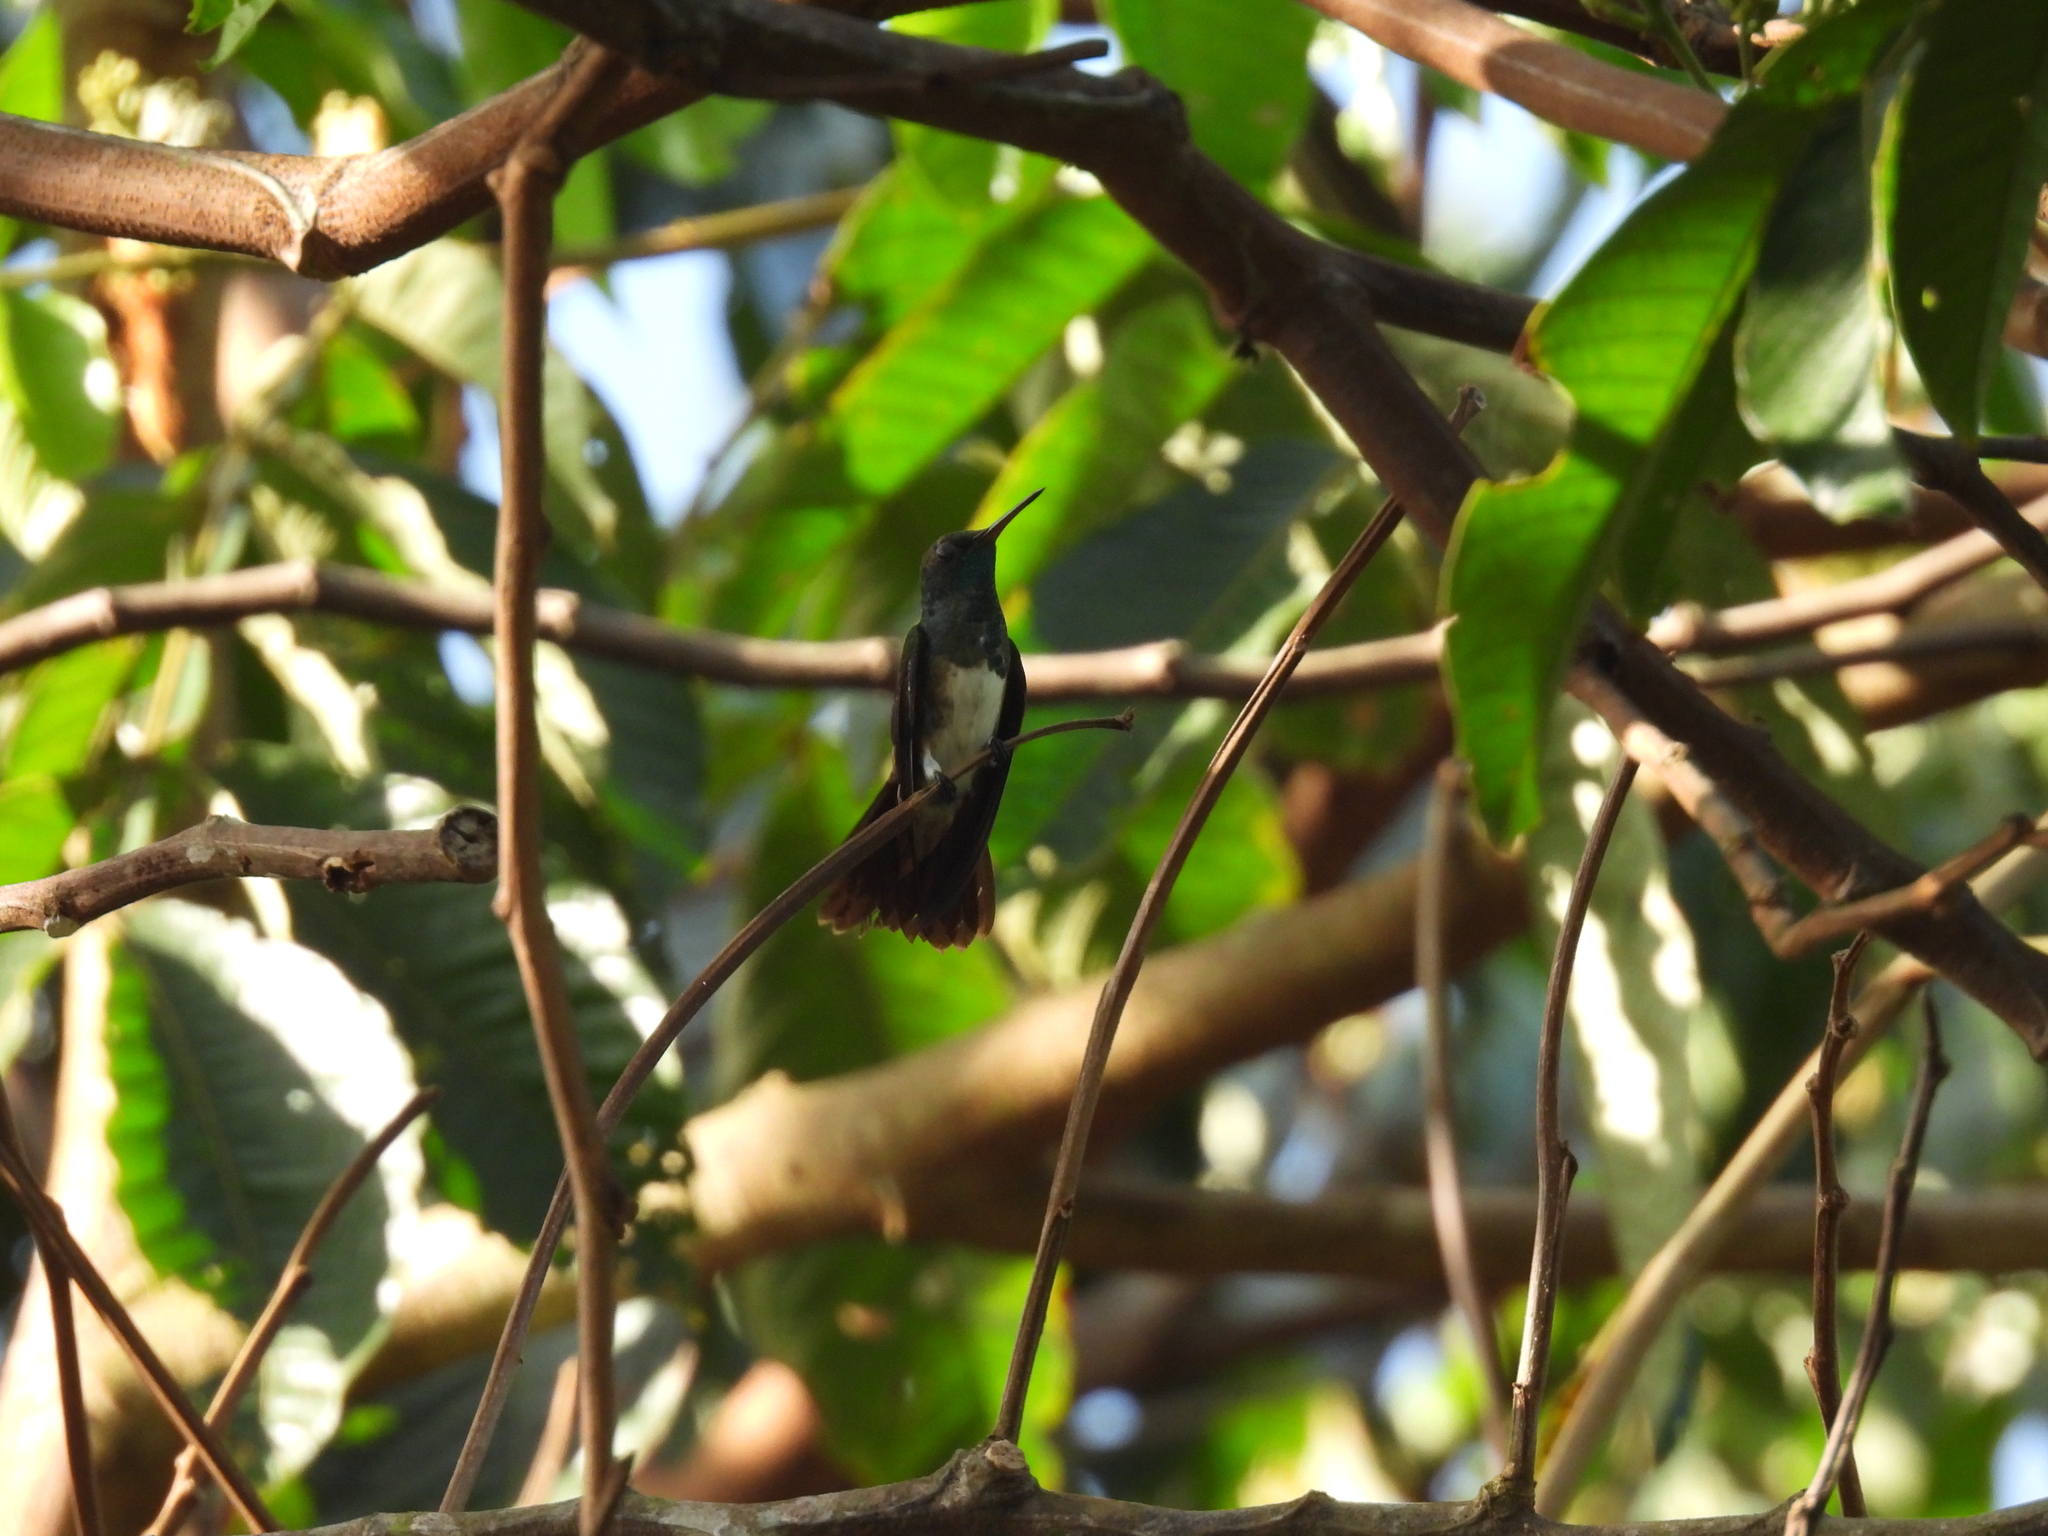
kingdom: Animalia
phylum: Chordata
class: Aves
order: Apodiformes
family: Trochilidae
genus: Saucerottia
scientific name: Saucerottia edward
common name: Snowy-bellied hummingbird
